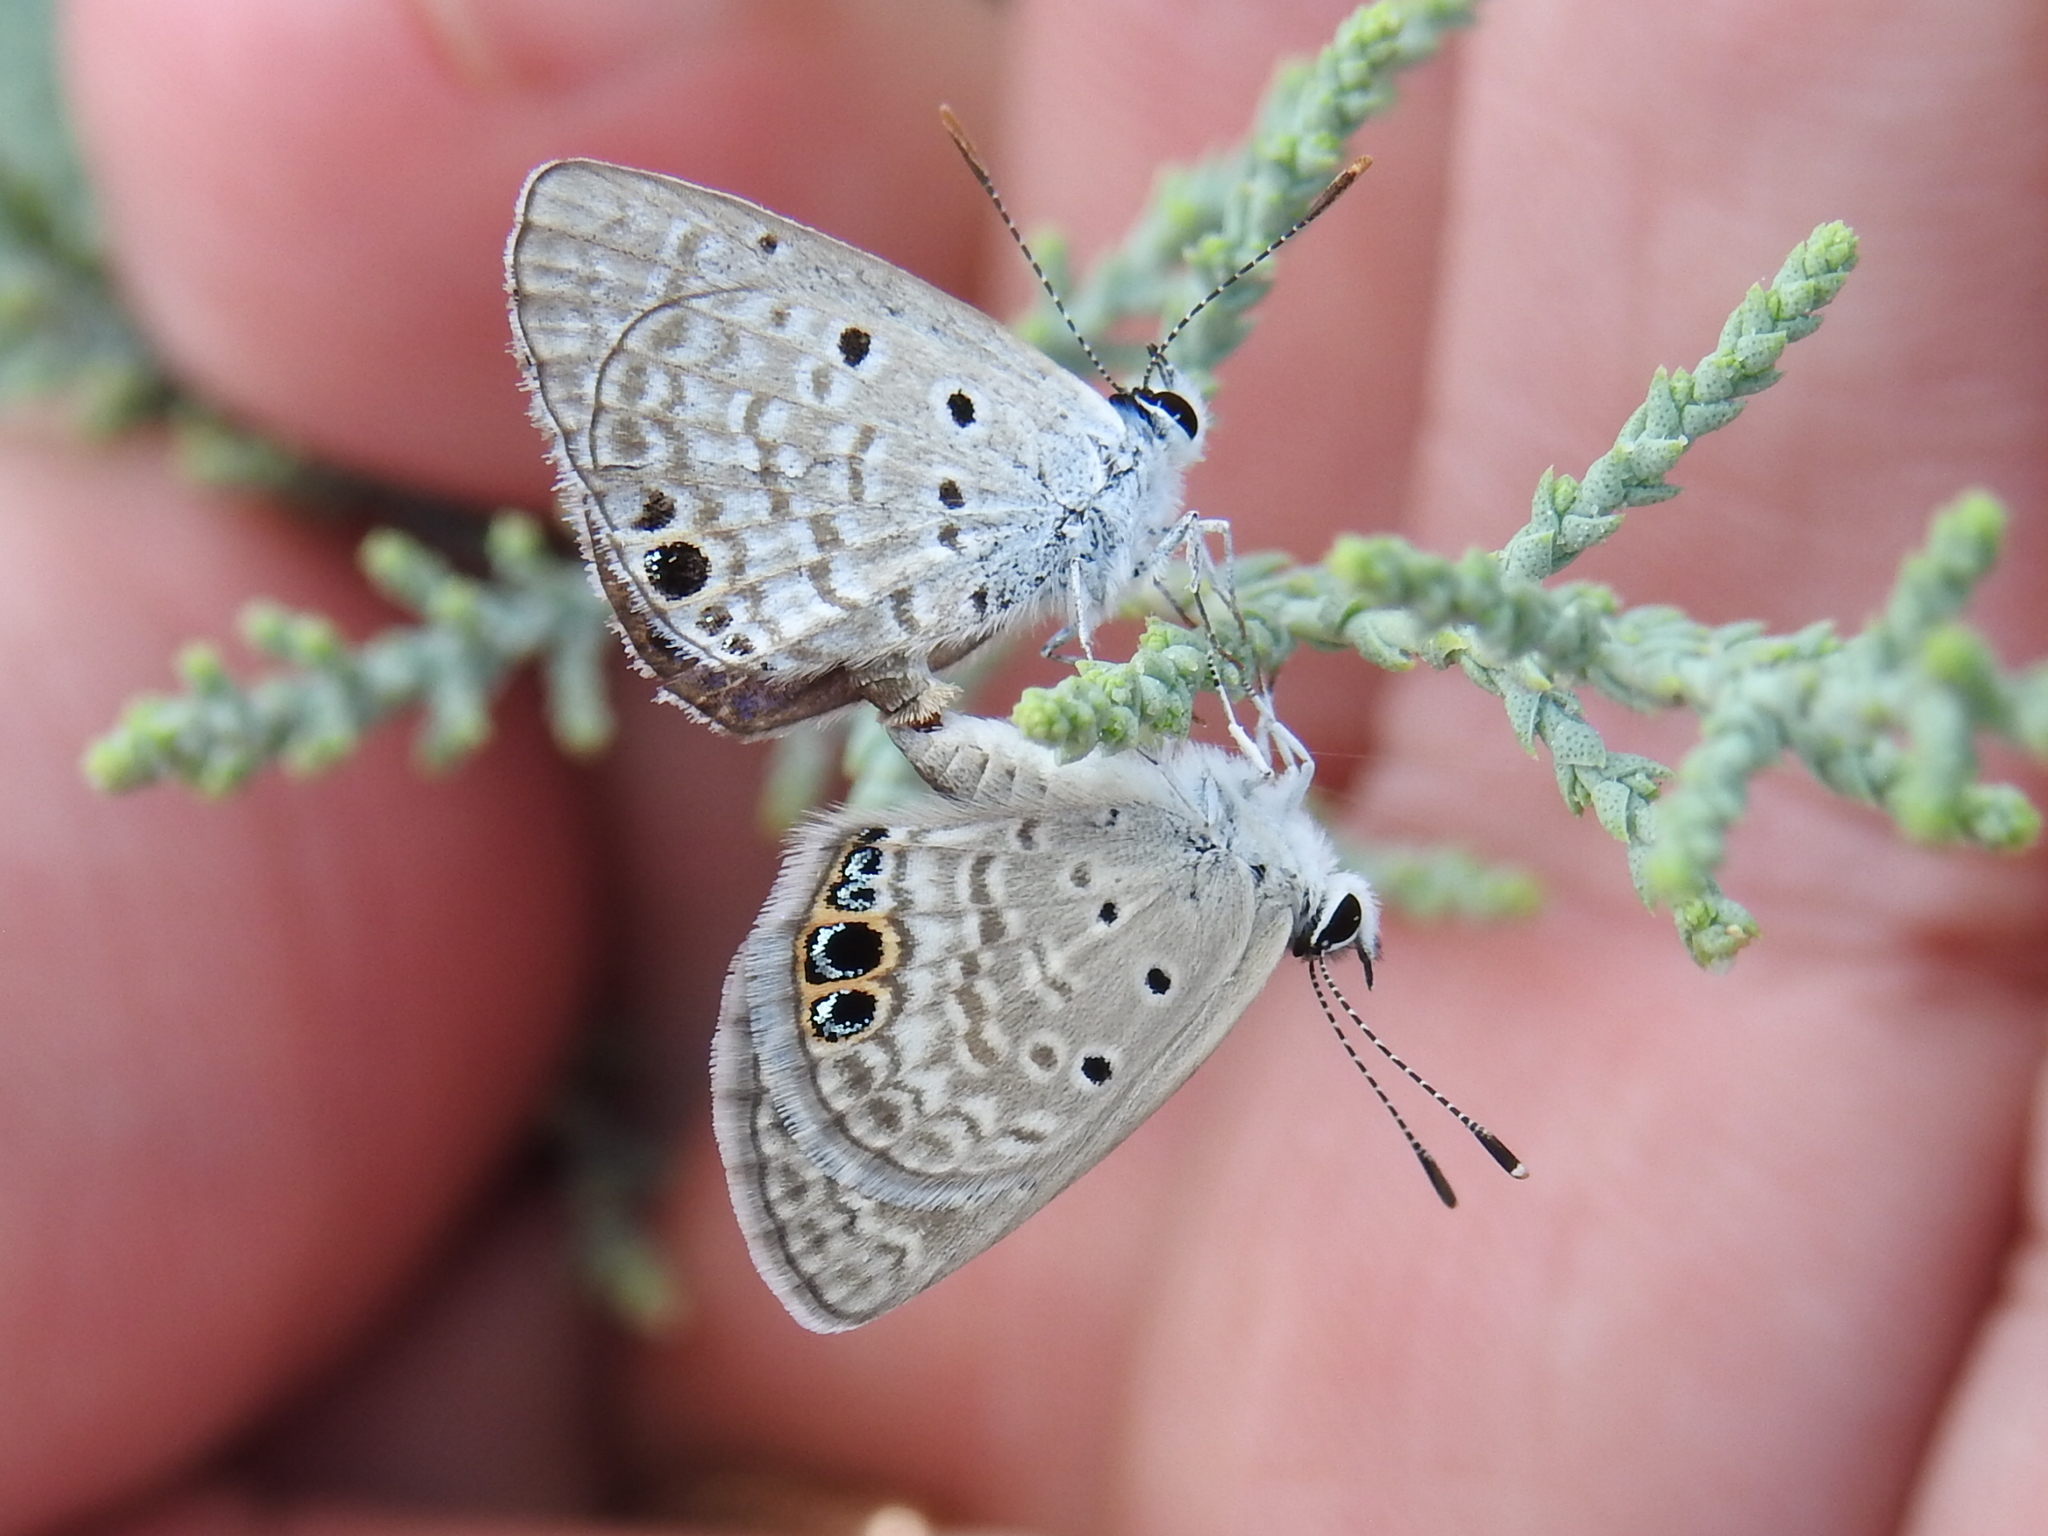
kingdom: Animalia
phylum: Arthropoda
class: Insecta
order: Lepidoptera
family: Lycaenidae
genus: Hemiargus
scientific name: Hemiargus ceraunus
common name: Ceraunus blue
